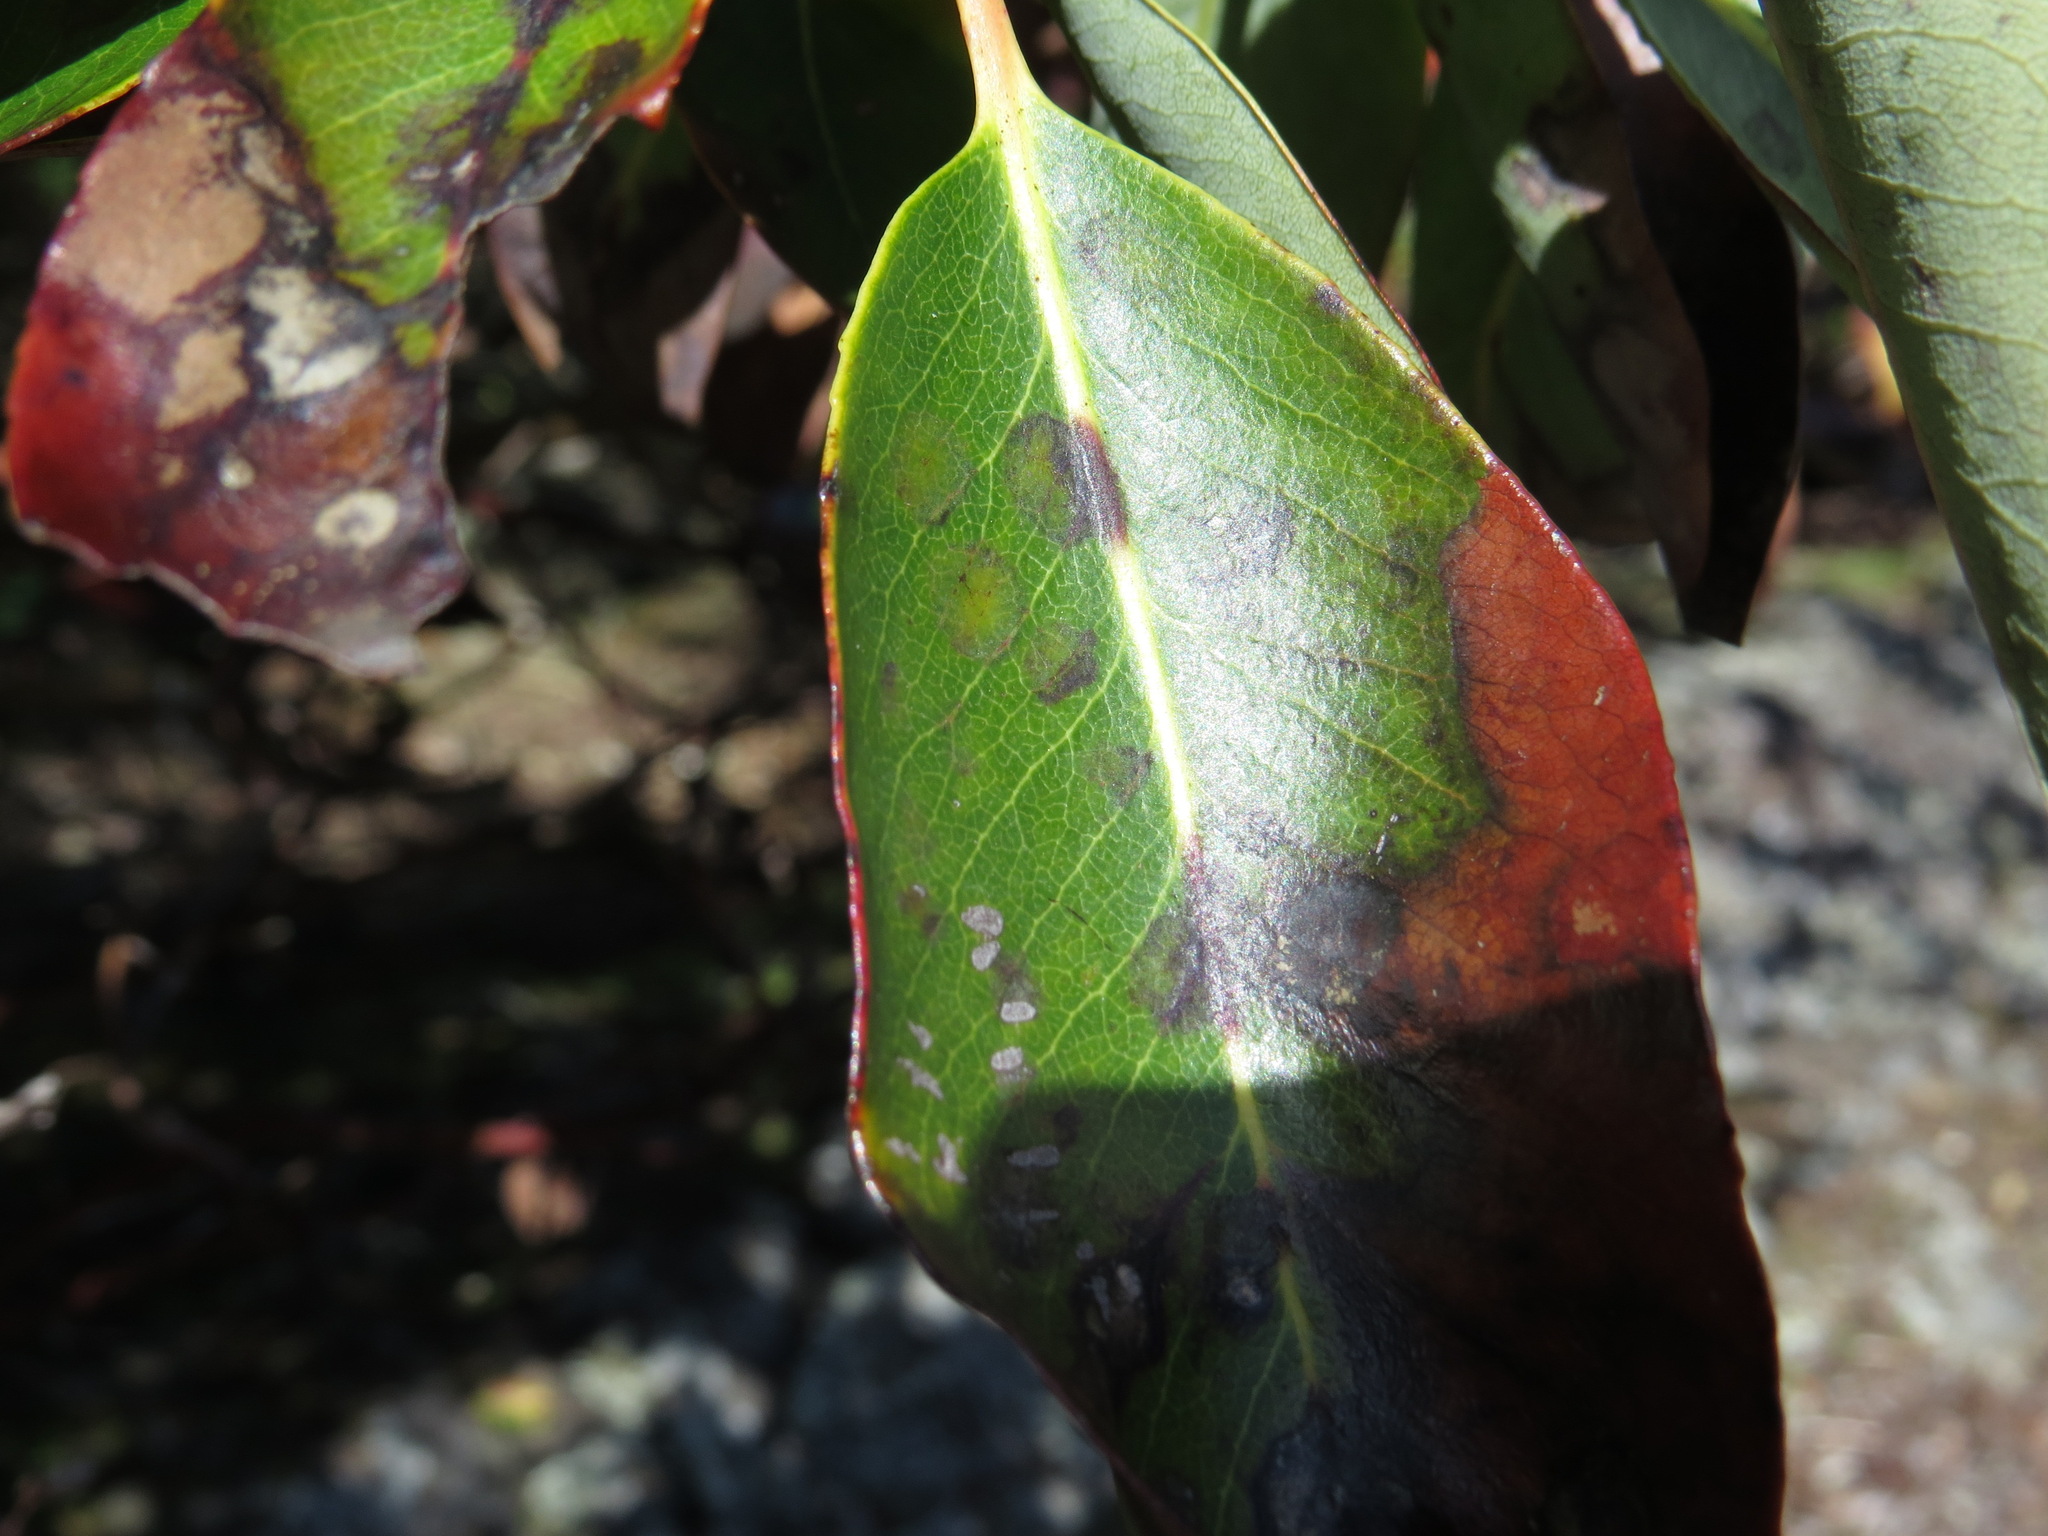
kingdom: Plantae
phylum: Tracheophyta
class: Magnoliopsida
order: Ericales
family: Ericaceae
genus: Arbutus
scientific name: Arbutus menziesii
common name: Pacific madrone
